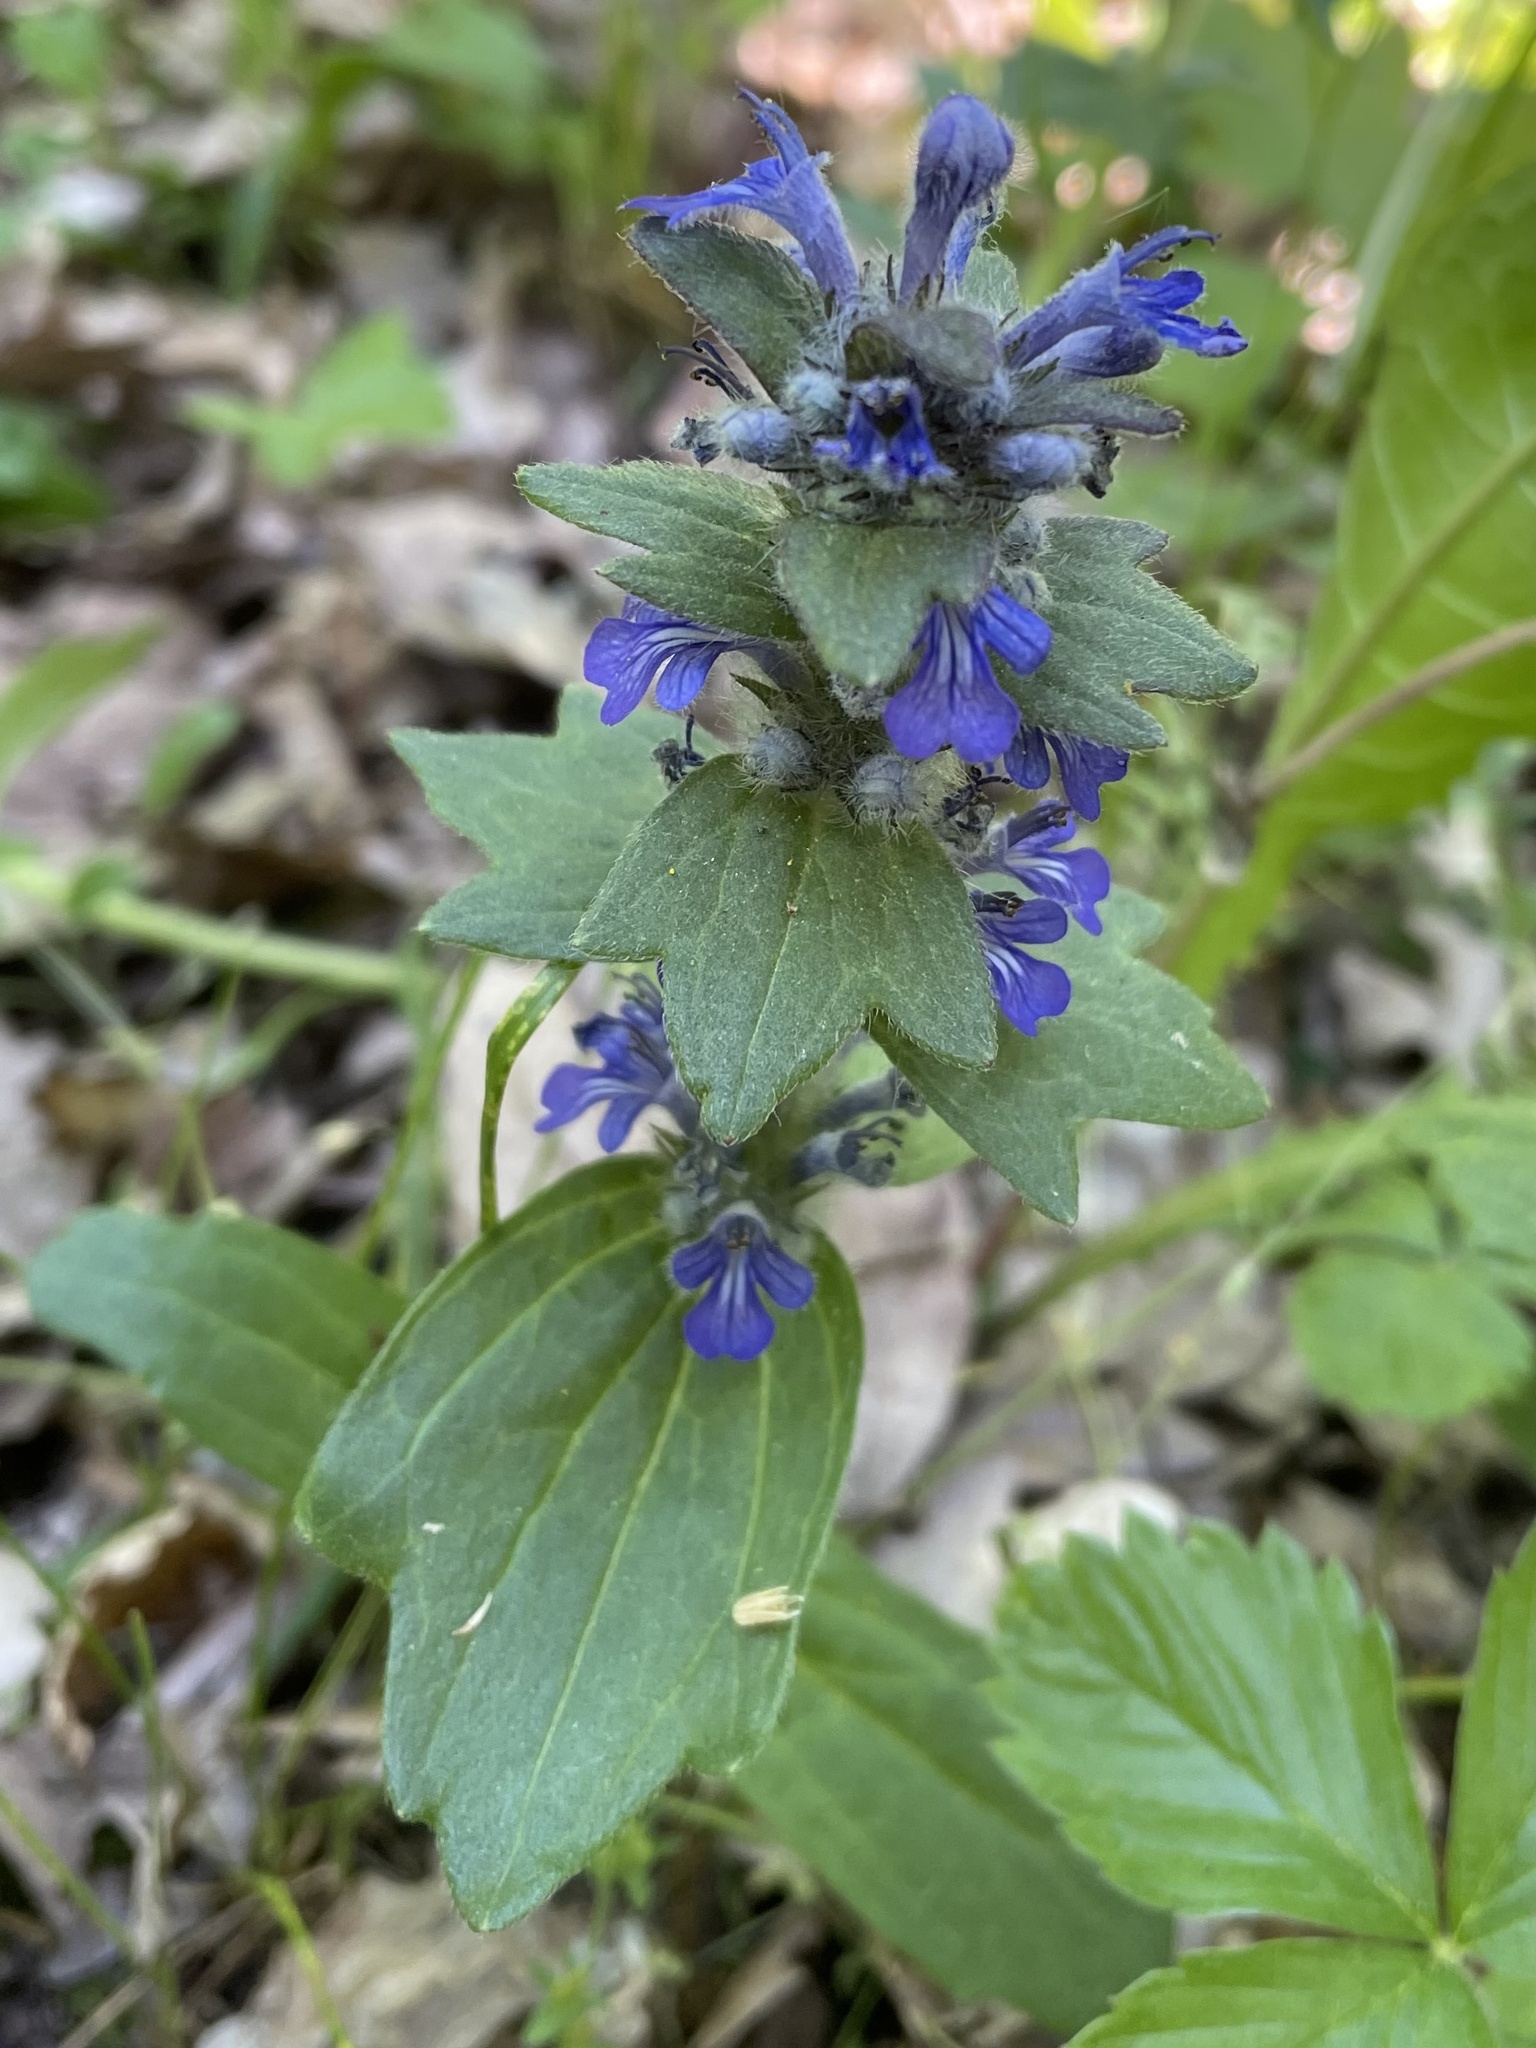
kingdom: Plantae
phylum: Tracheophyta
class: Magnoliopsida
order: Lamiales
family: Lamiaceae
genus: Ajuga
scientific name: Ajuga genevensis
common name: Blue bugle
